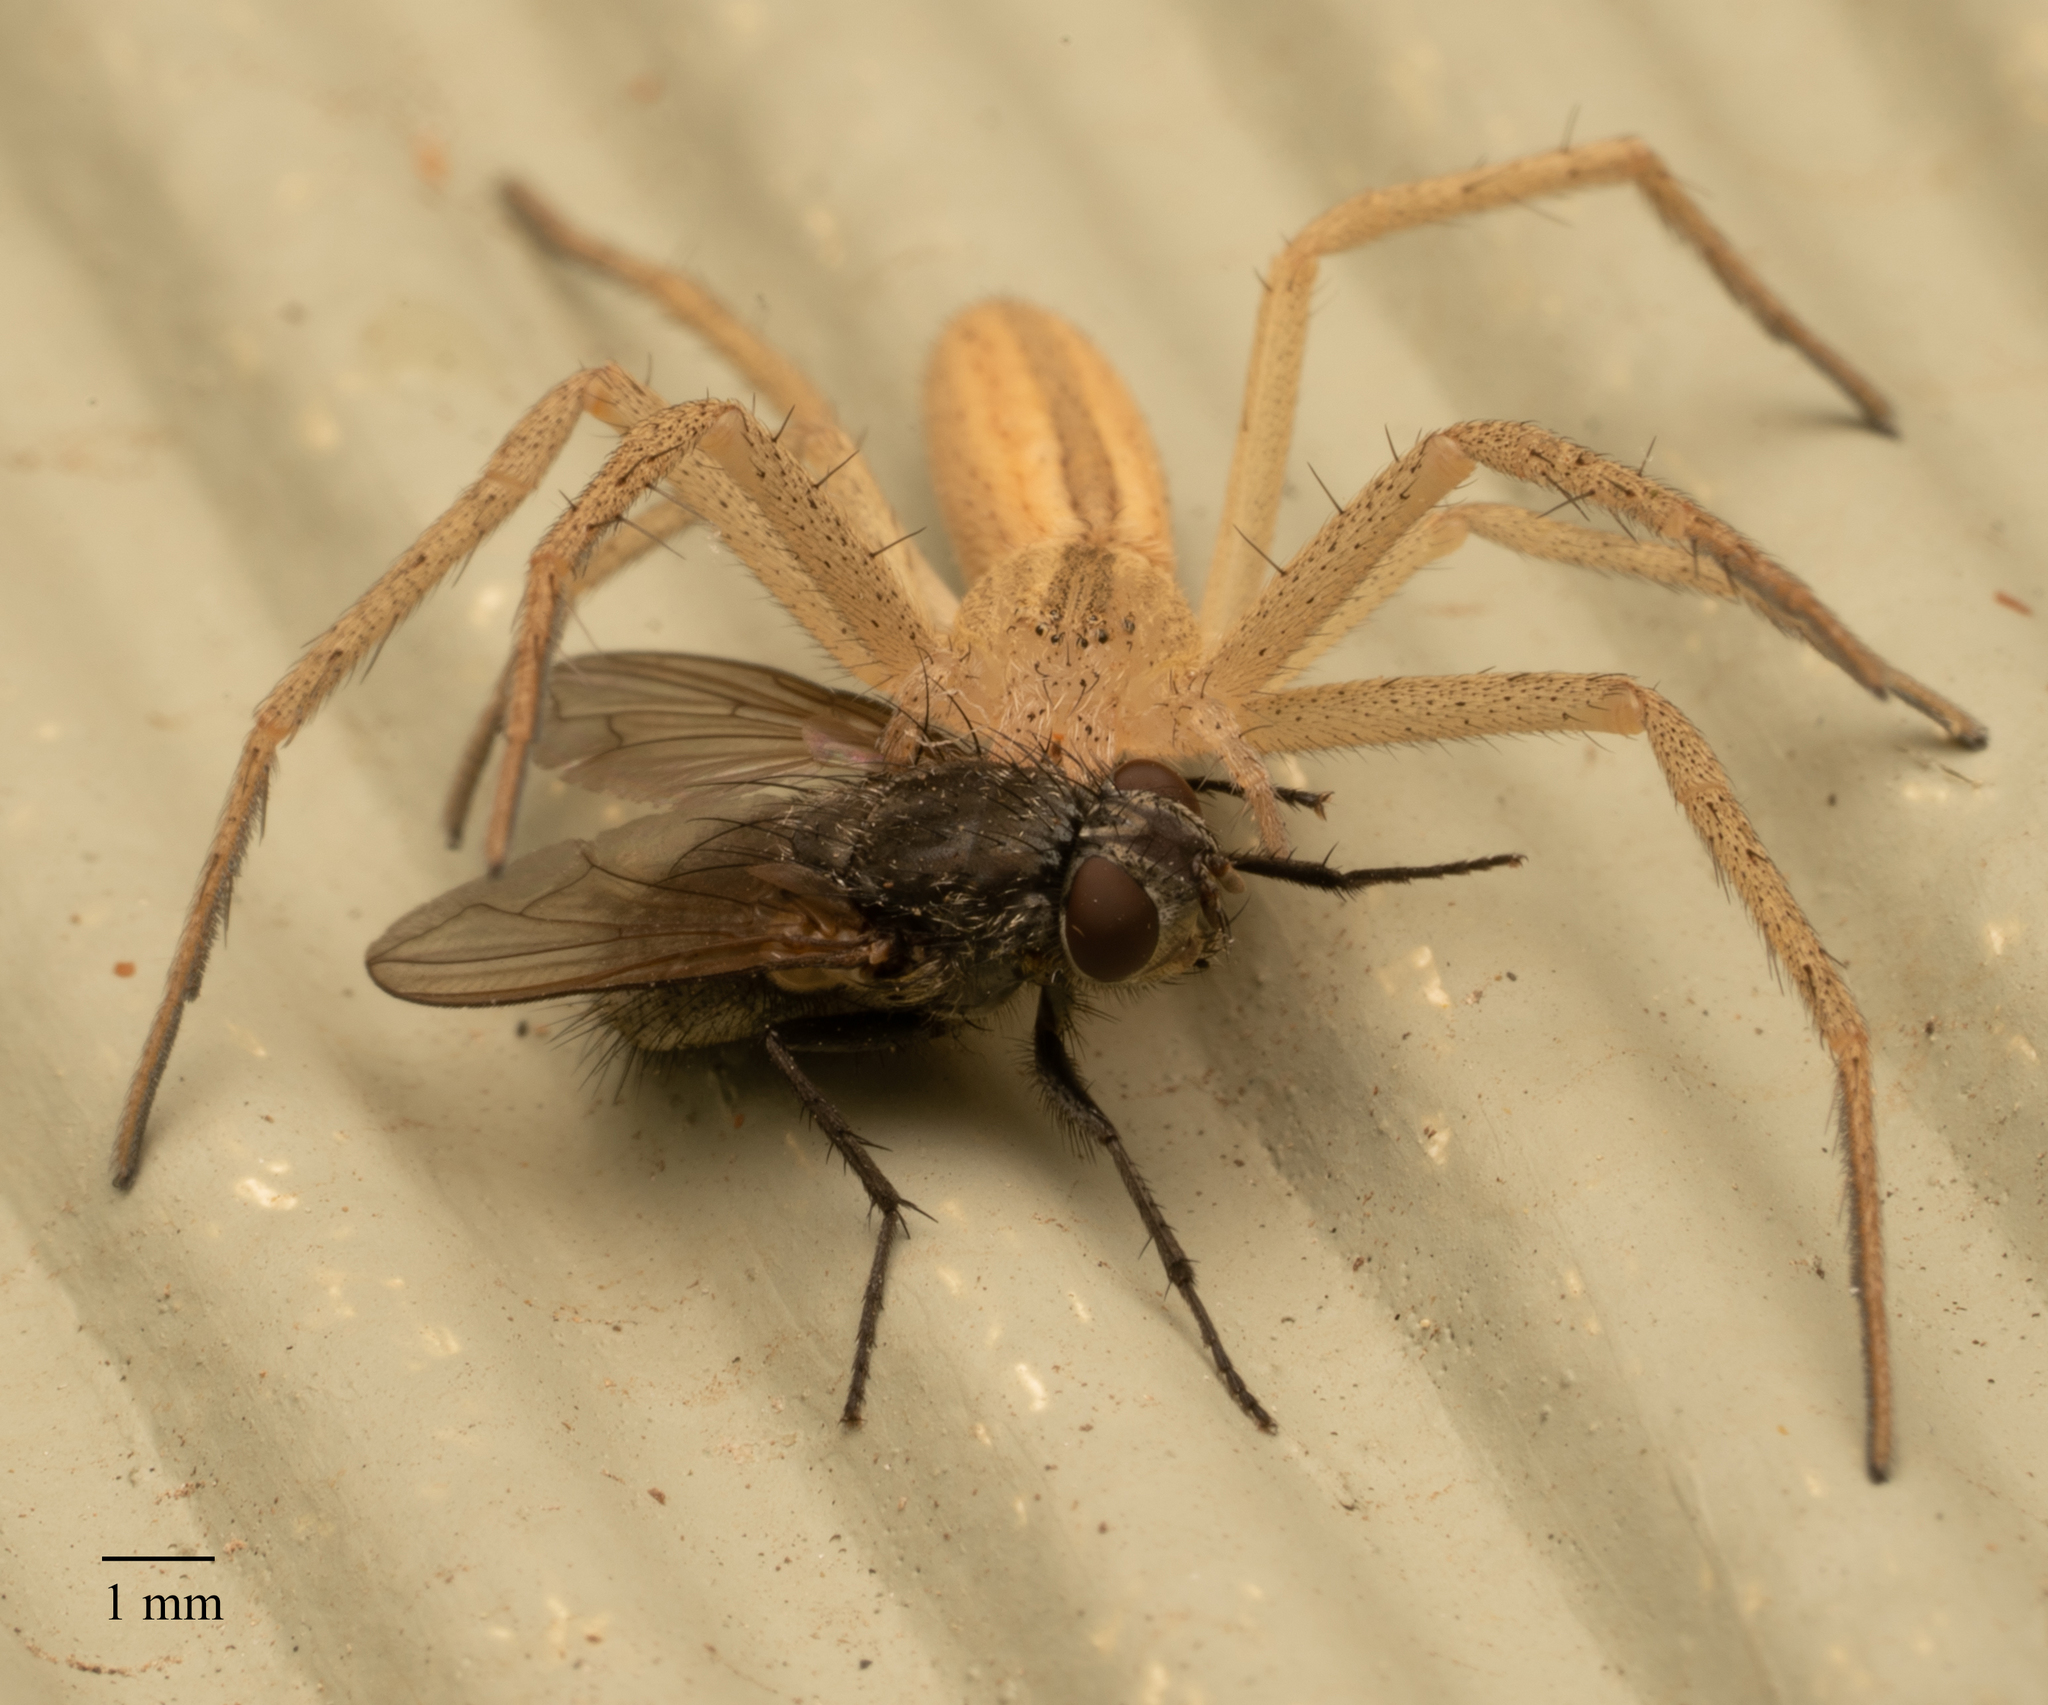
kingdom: Animalia
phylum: Arthropoda
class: Insecta
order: Diptera
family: Polleniidae
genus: Pollenia
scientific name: Pollenia
